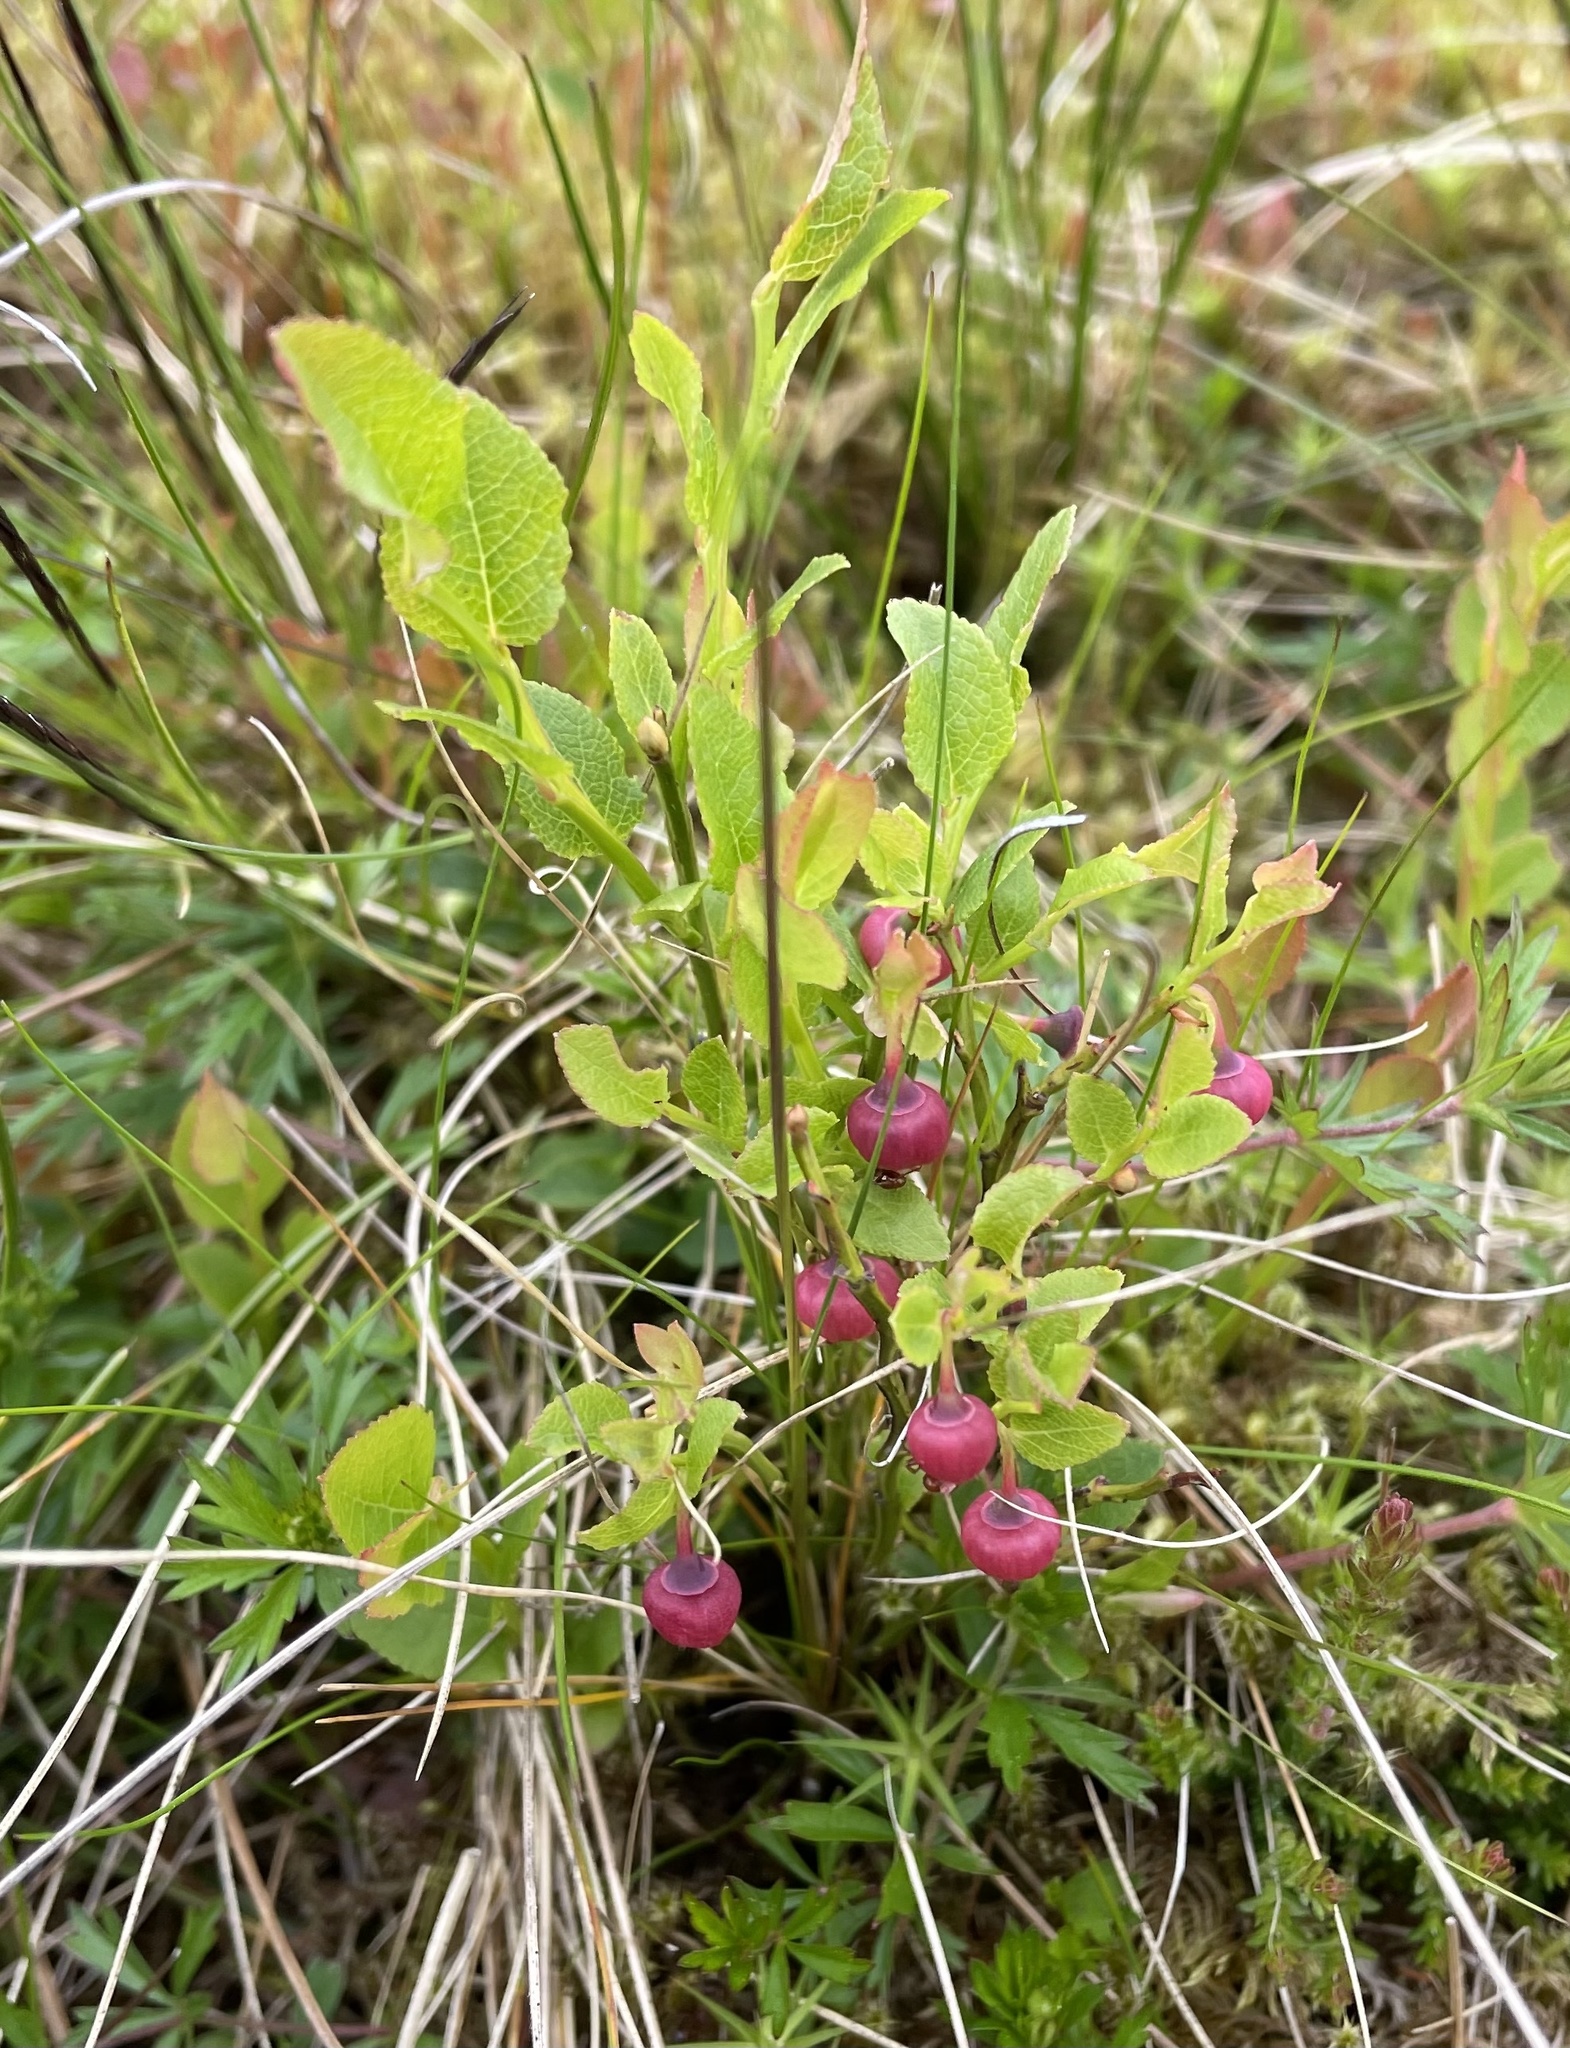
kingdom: Plantae
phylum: Tracheophyta
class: Magnoliopsida
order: Ericales
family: Ericaceae
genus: Vaccinium
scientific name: Vaccinium myrtillus
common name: Bilberry
